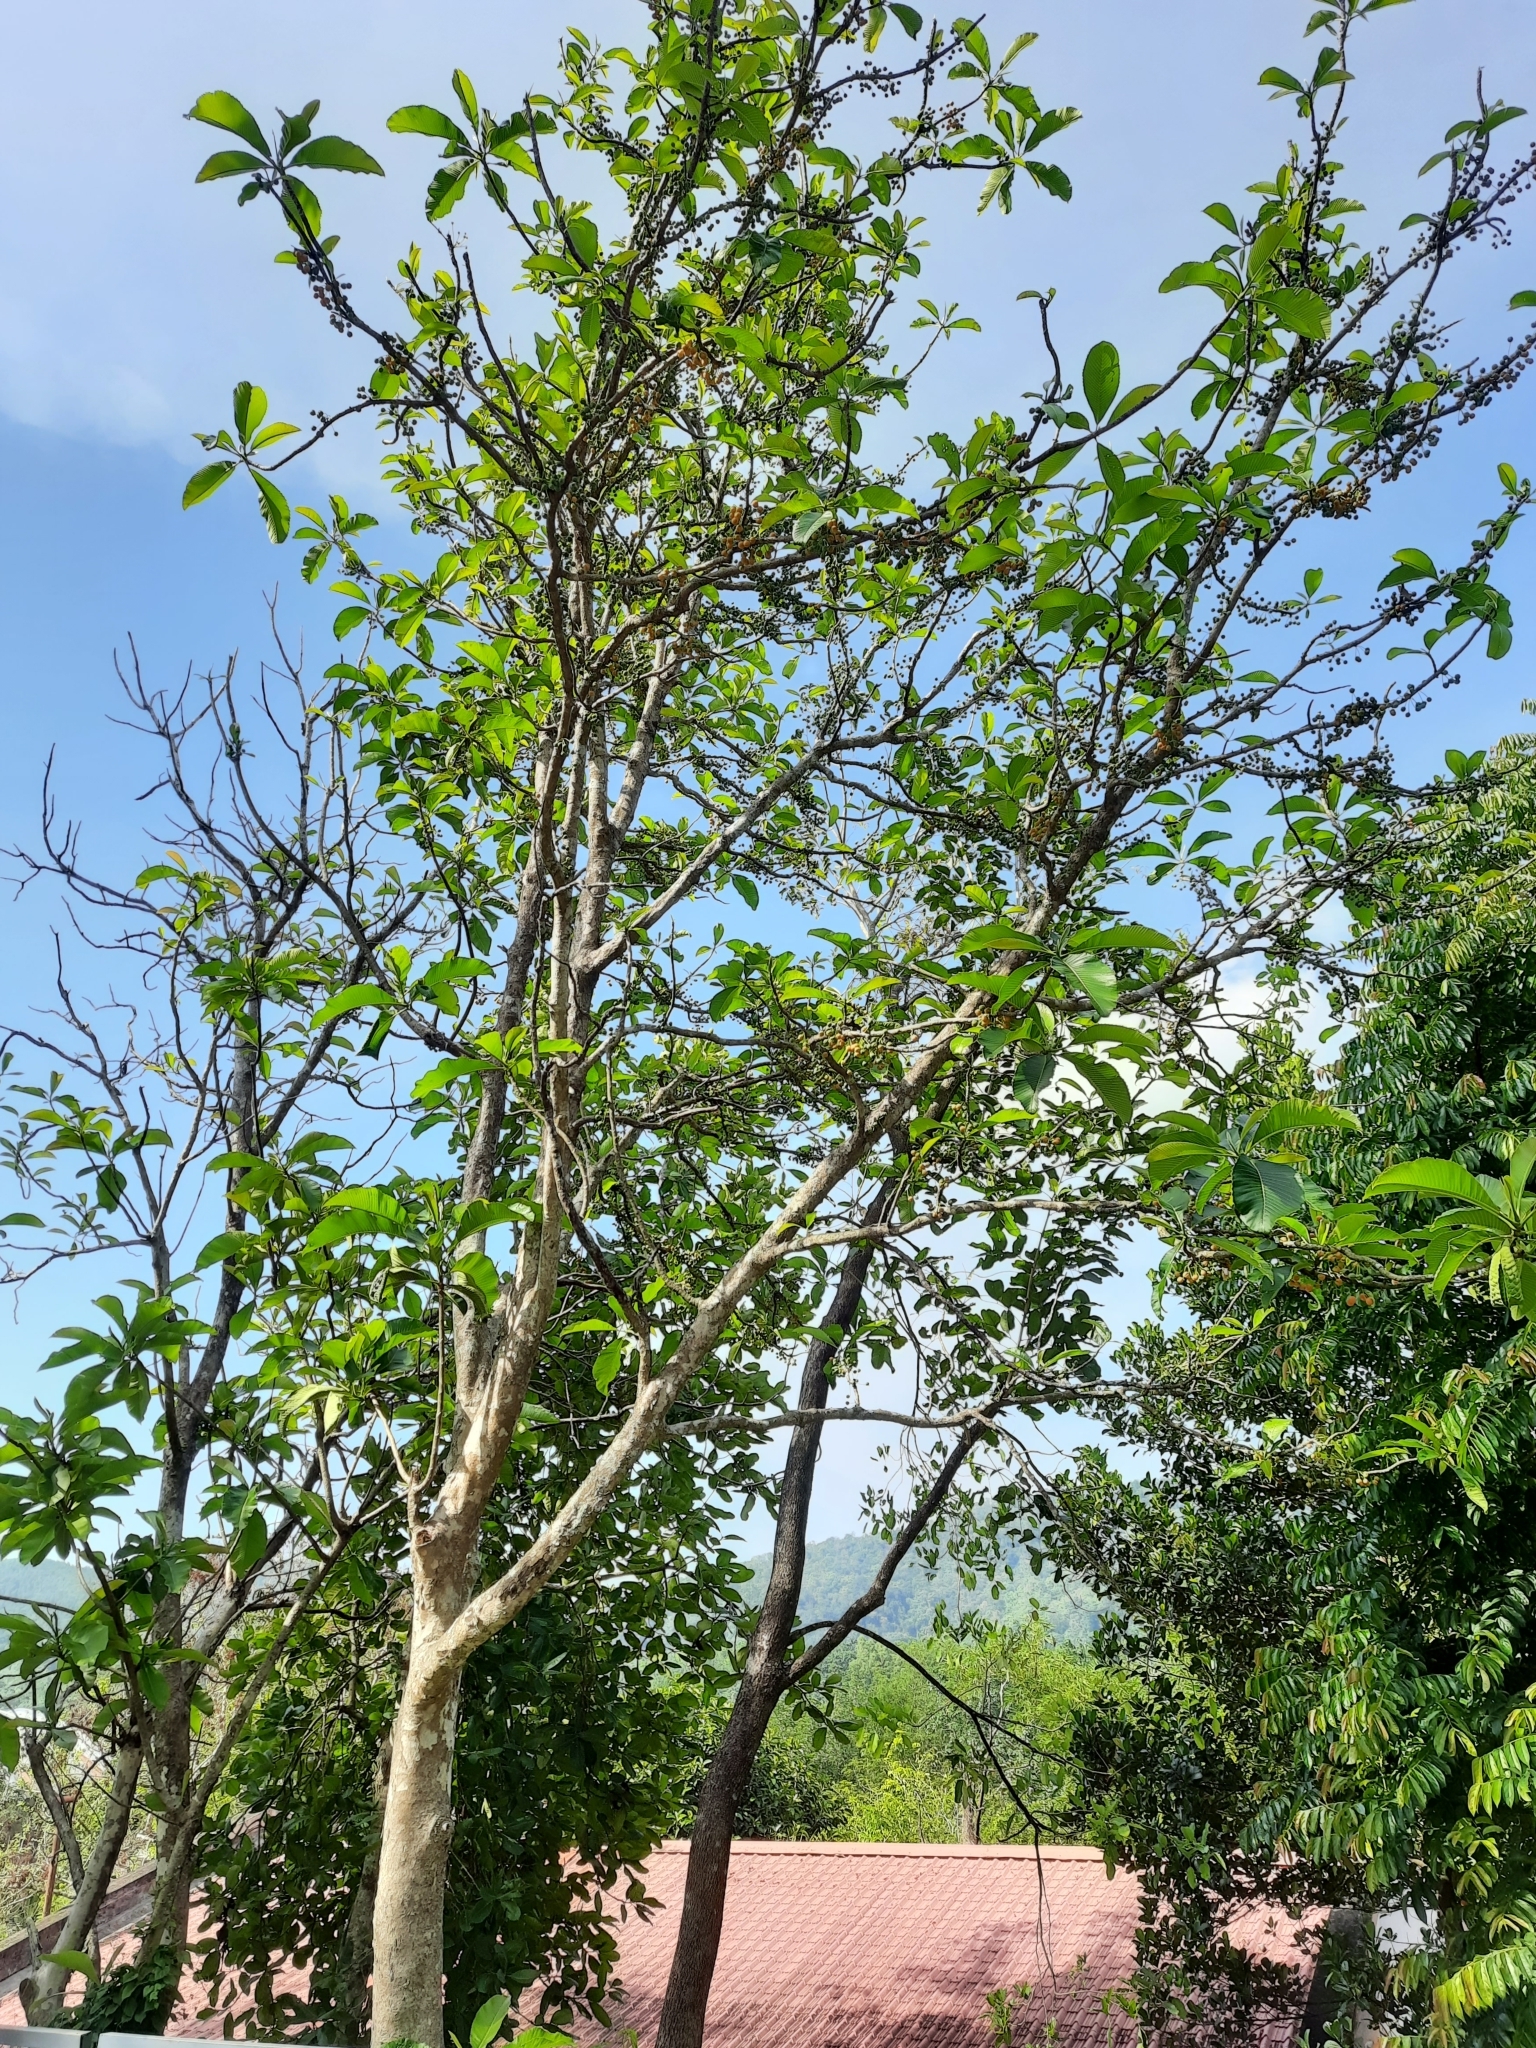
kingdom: Plantae
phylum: Tracheophyta
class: Magnoliopsida
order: Dilleniales
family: Dilleniaceae
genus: Dillenia
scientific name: Dillenia pentagyna
